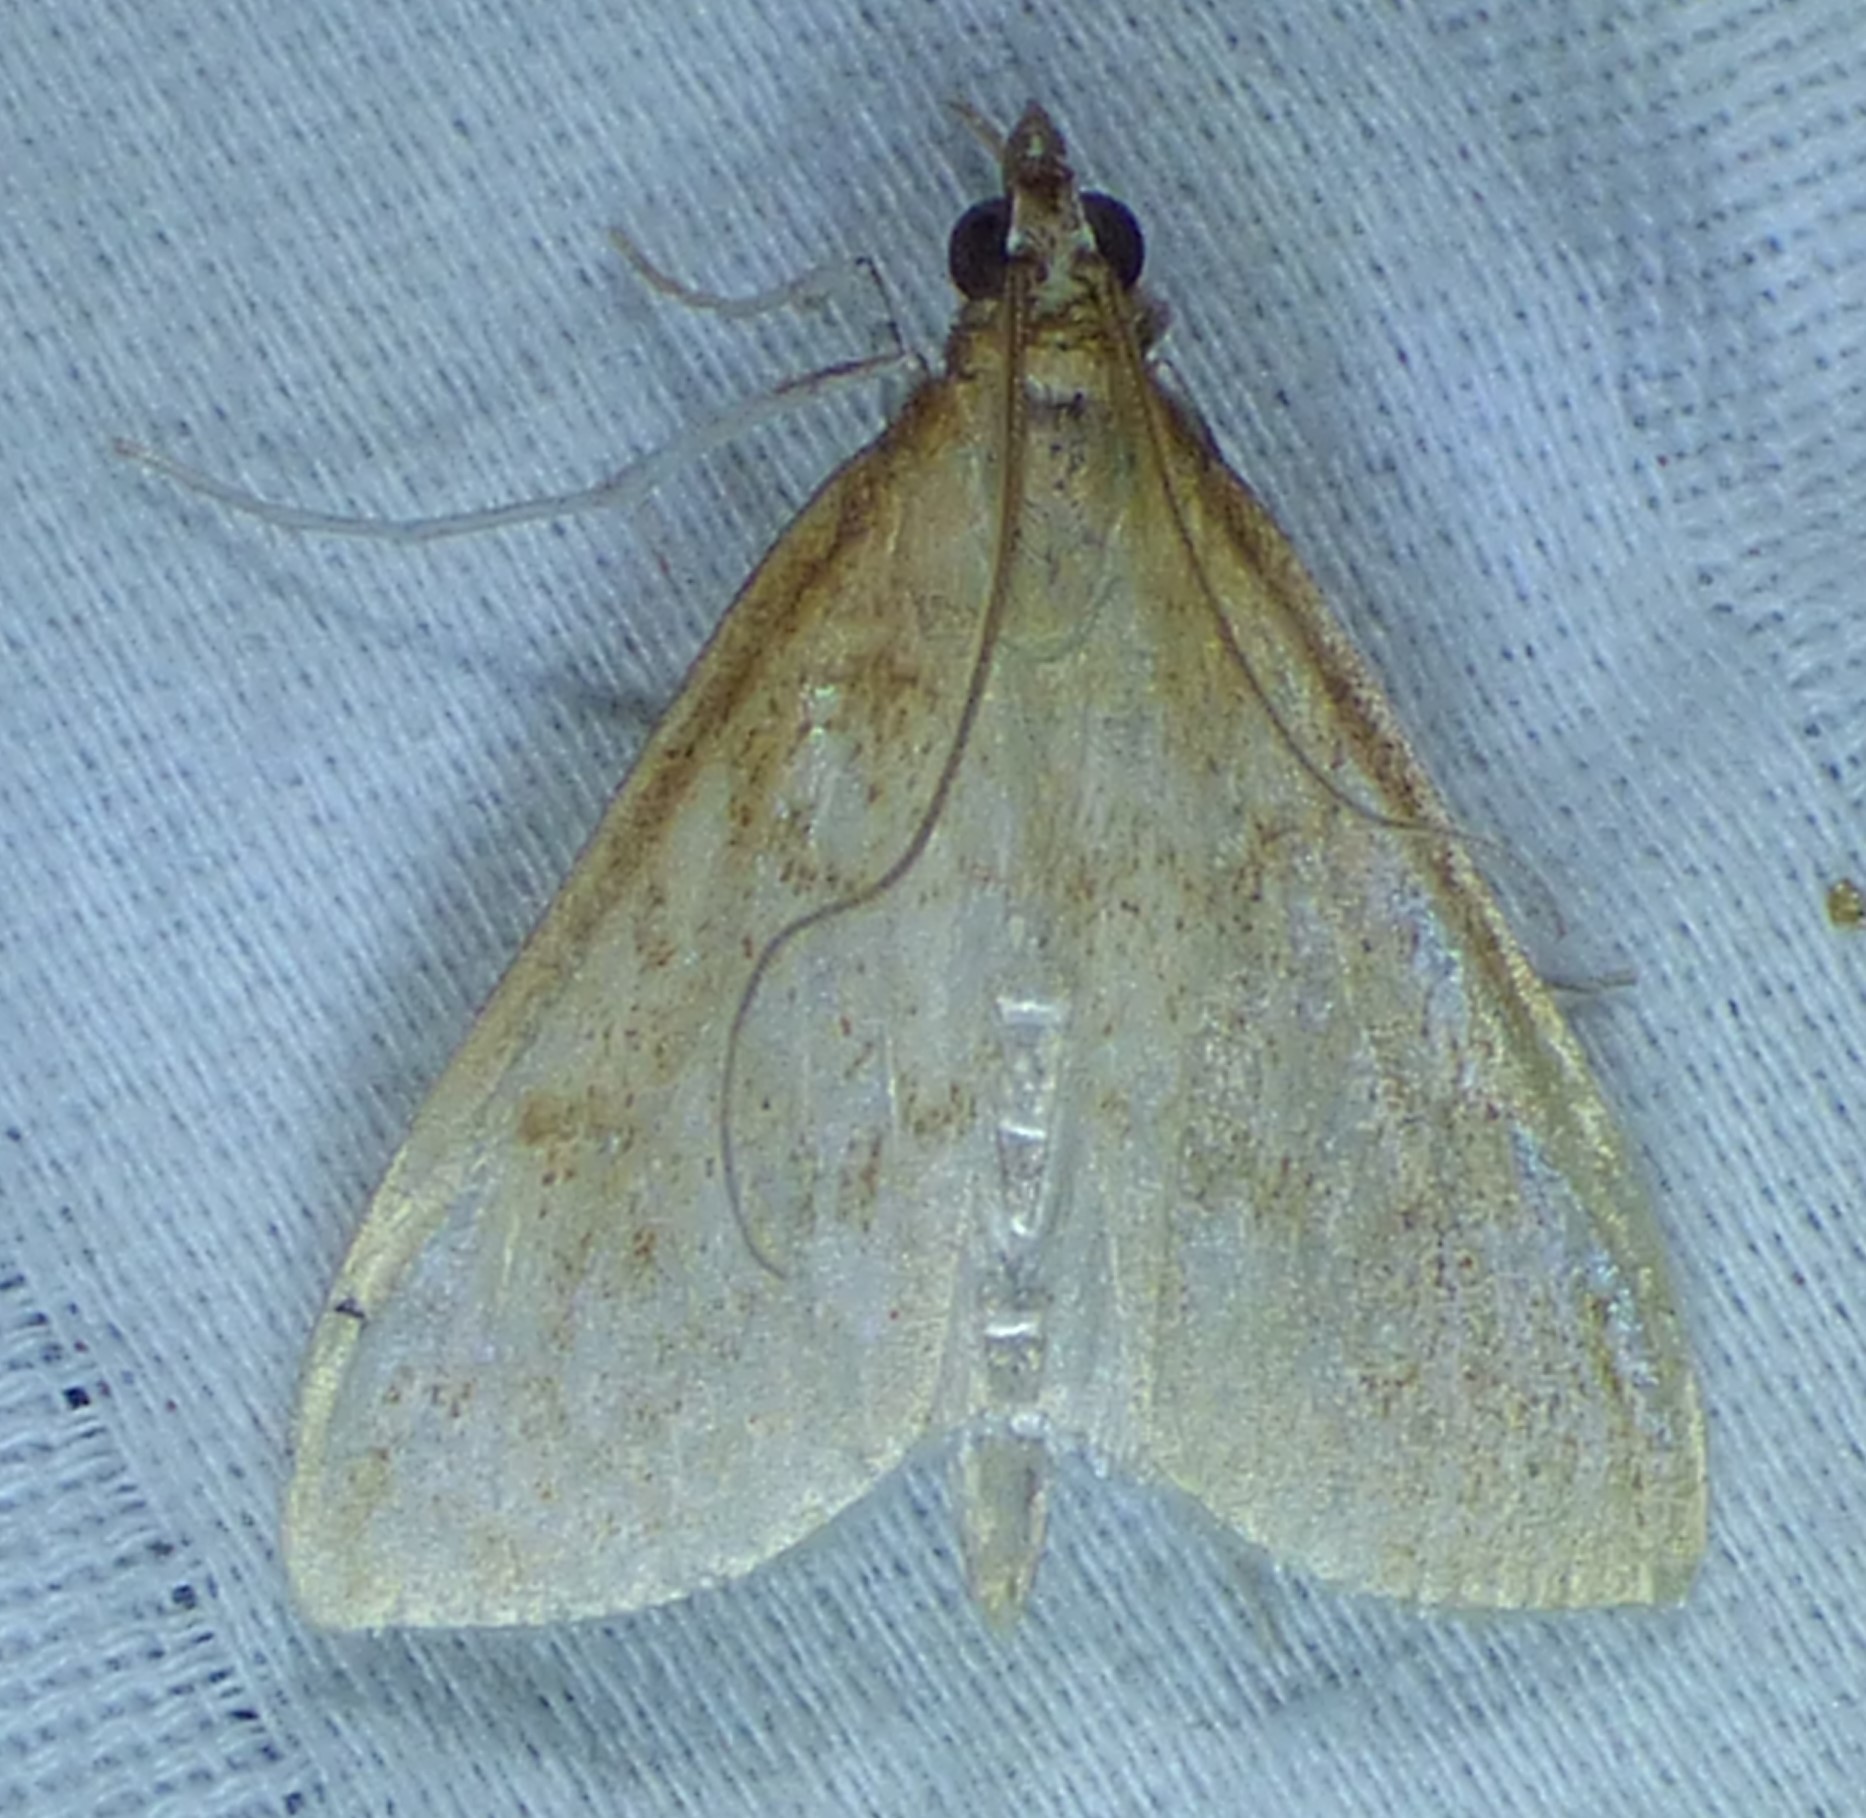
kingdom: Animalia
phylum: Arthropoda
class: Insecta
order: Lepidoptera
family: Crambidae
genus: Saucrobotys
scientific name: Saucrobotys futilalis
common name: Dogbane saucrobotys moth
